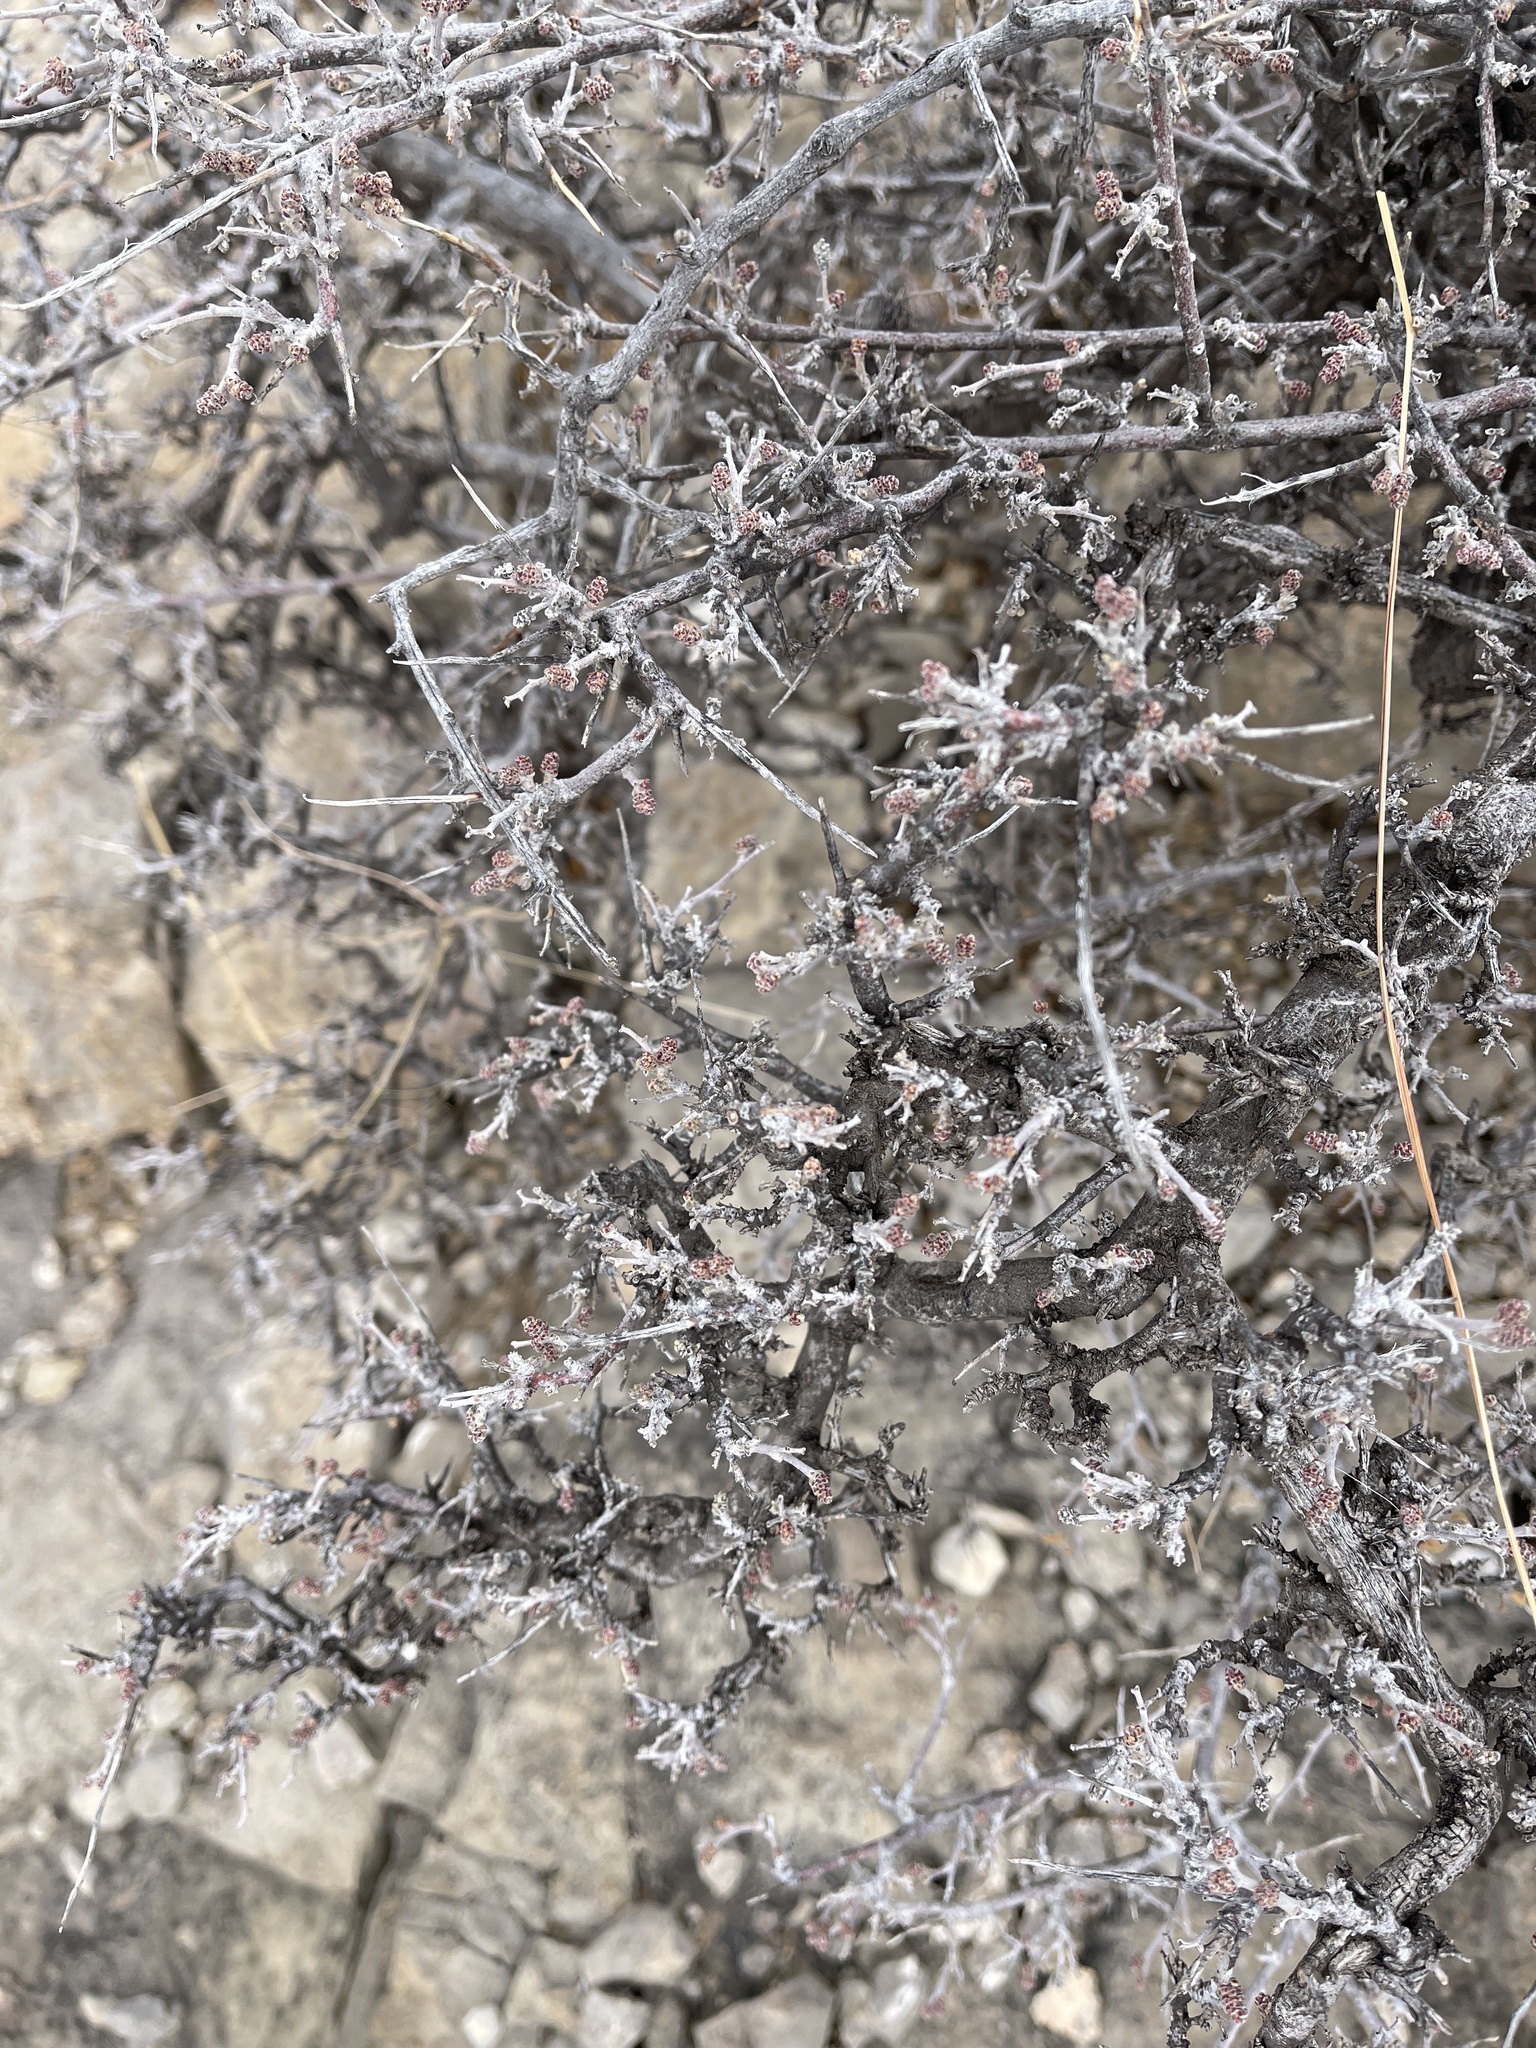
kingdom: Plantae
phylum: Tracheophyta
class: Magnoliopsida
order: Sapindales
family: Anacardiaceae
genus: Rhus
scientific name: Rhus microphylla
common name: Desert sumac
